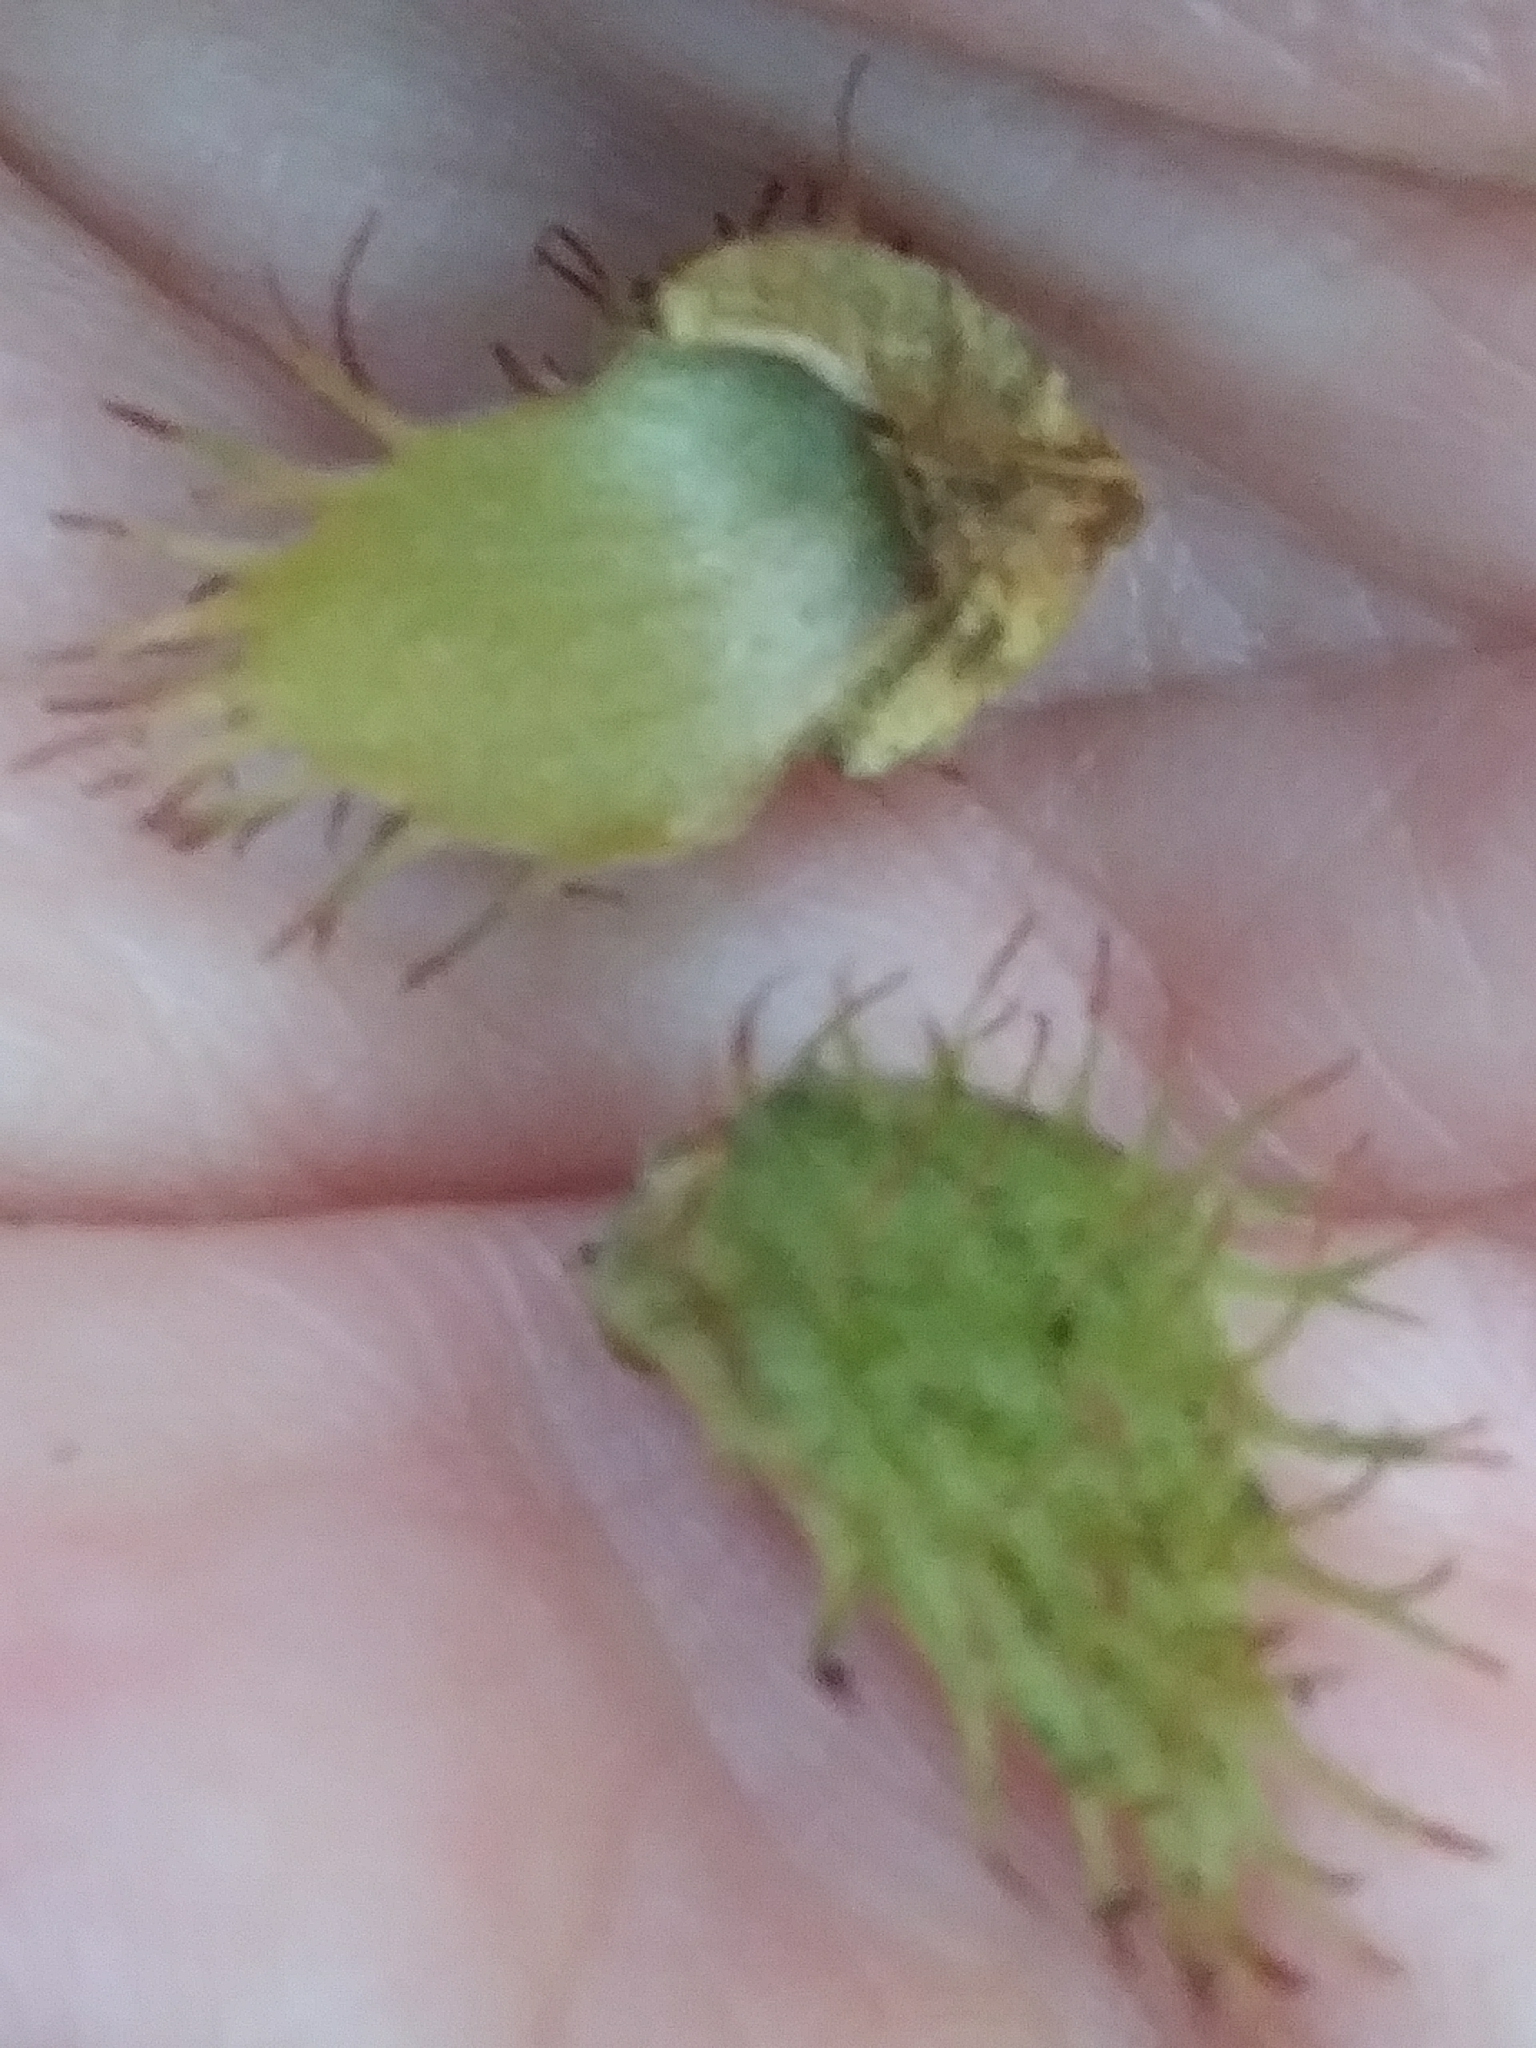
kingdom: Plantae
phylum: Tracheophyta
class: Magnoliopsida
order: Fagales
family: Fagaceae
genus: Fagus
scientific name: Fagus grandifolia
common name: American beech
